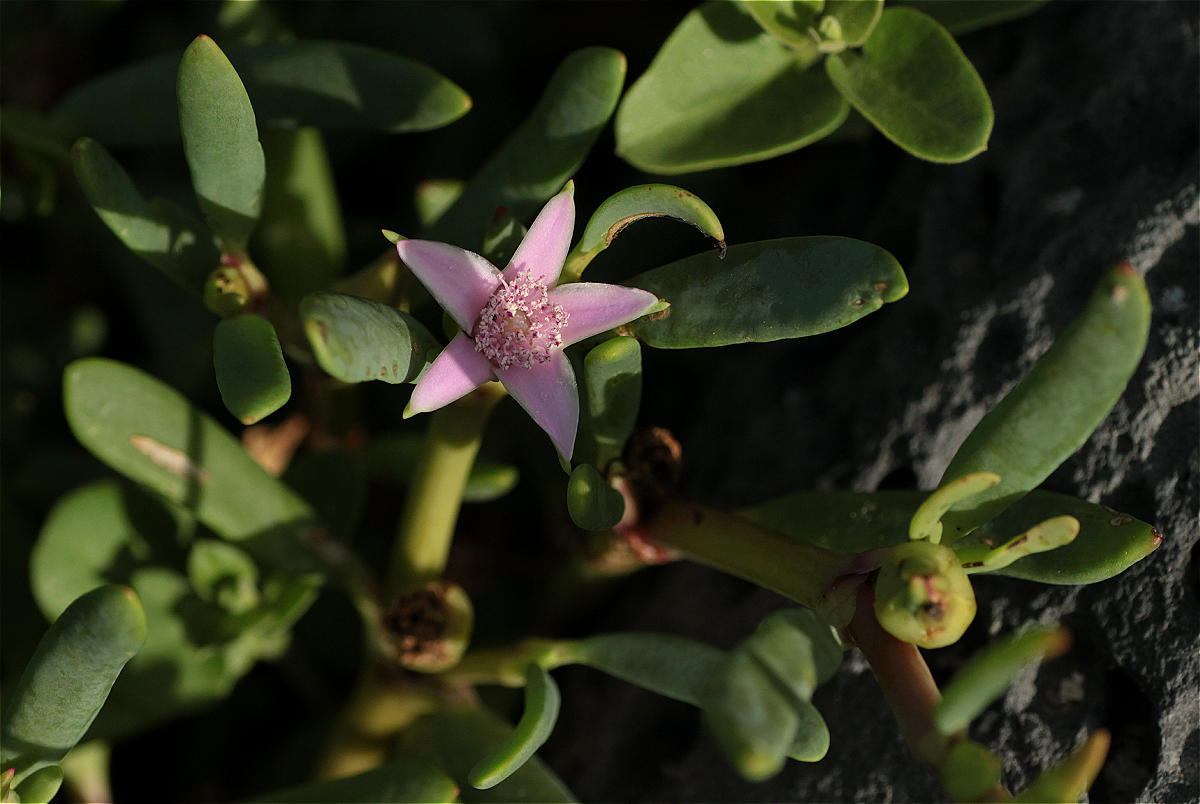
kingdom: Plantae
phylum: Tracheophyta
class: Magnoliopsida
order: Caryophyllales
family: Aizoaceae
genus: Sesuvium
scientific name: Sesuvium portulacastrum
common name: Sea-purslane
